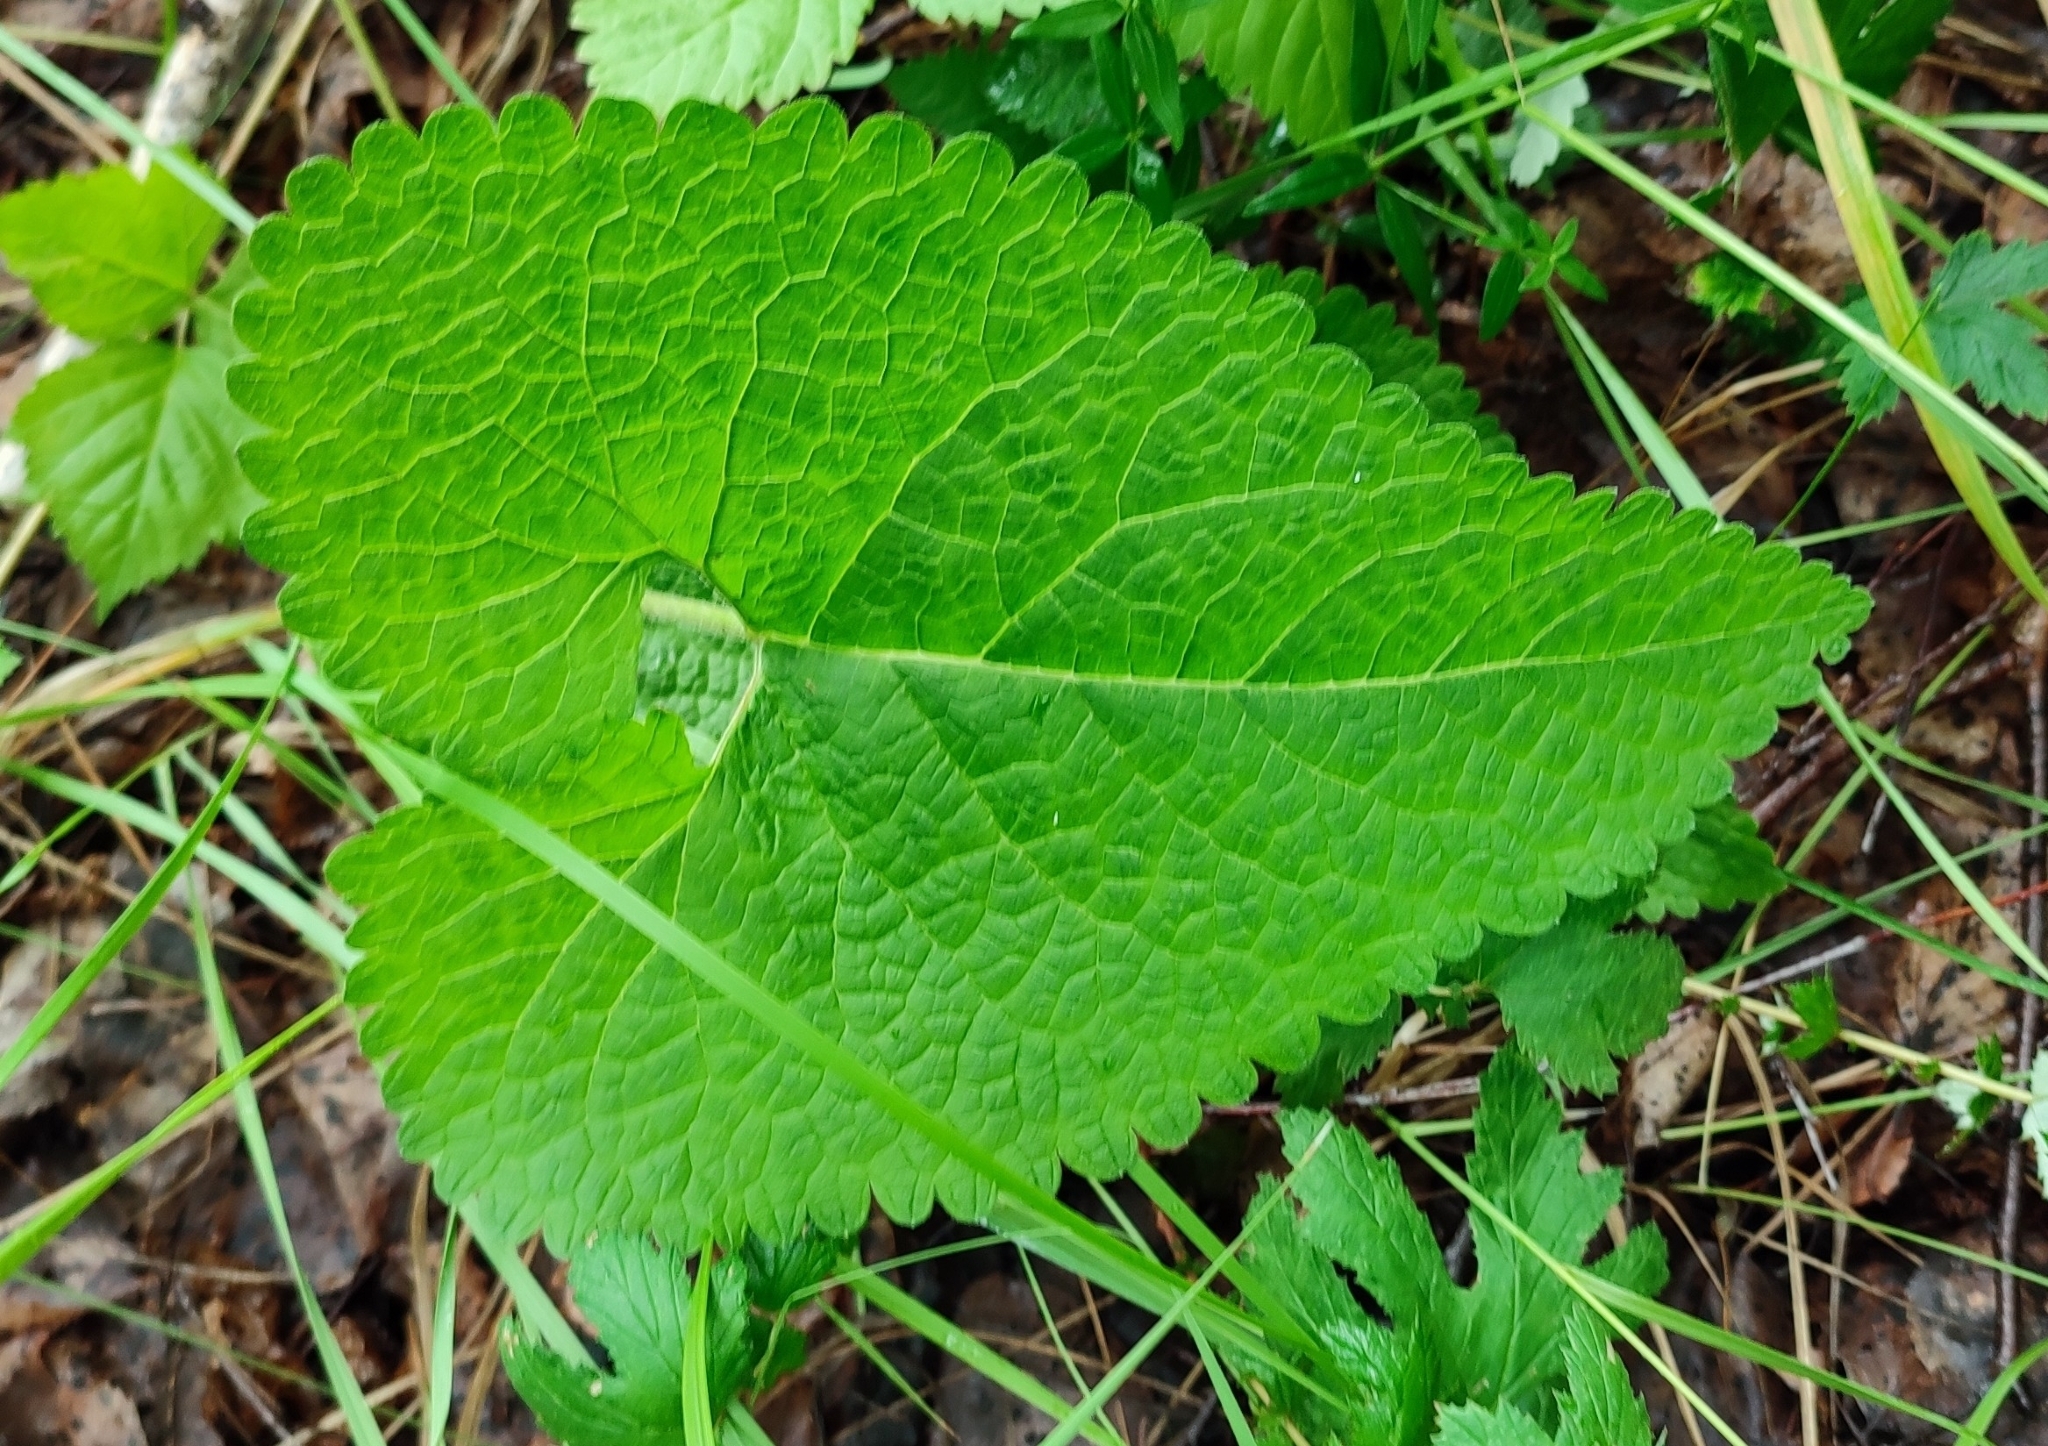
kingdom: Plantae
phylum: Tracheophyta
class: Magnoliopsida
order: Lamiales
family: Lamiaceae
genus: Phlomoides
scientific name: Phlomoides tuberosa
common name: Tuberous jerusalem sage
